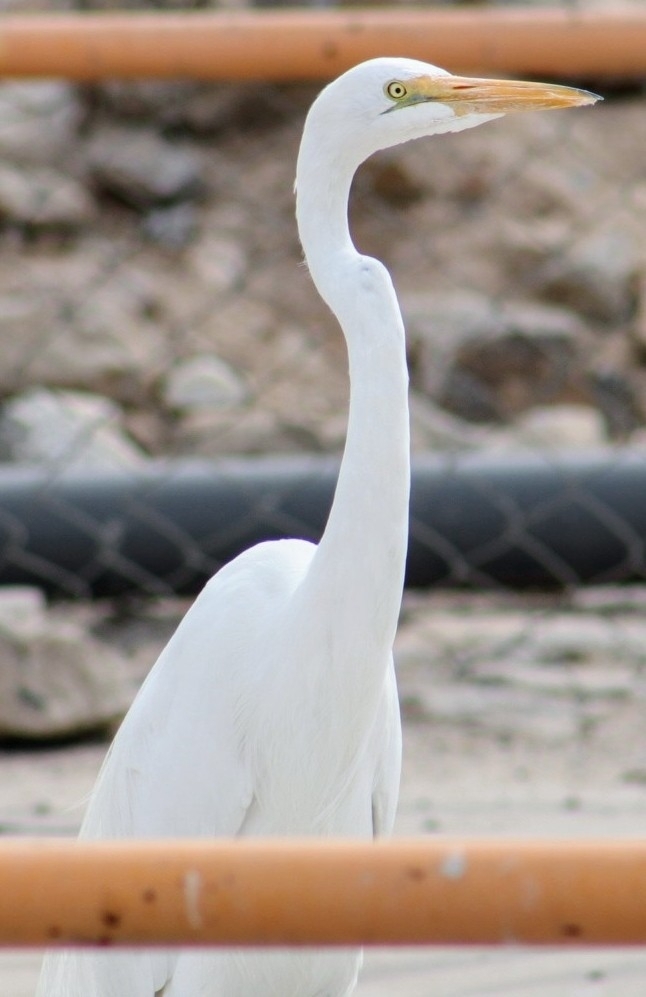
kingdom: Animalia
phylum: Chordata
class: Aves
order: Pelecaniformes
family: Ardeidae
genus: Ardea
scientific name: Ardea alba
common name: Great egret
